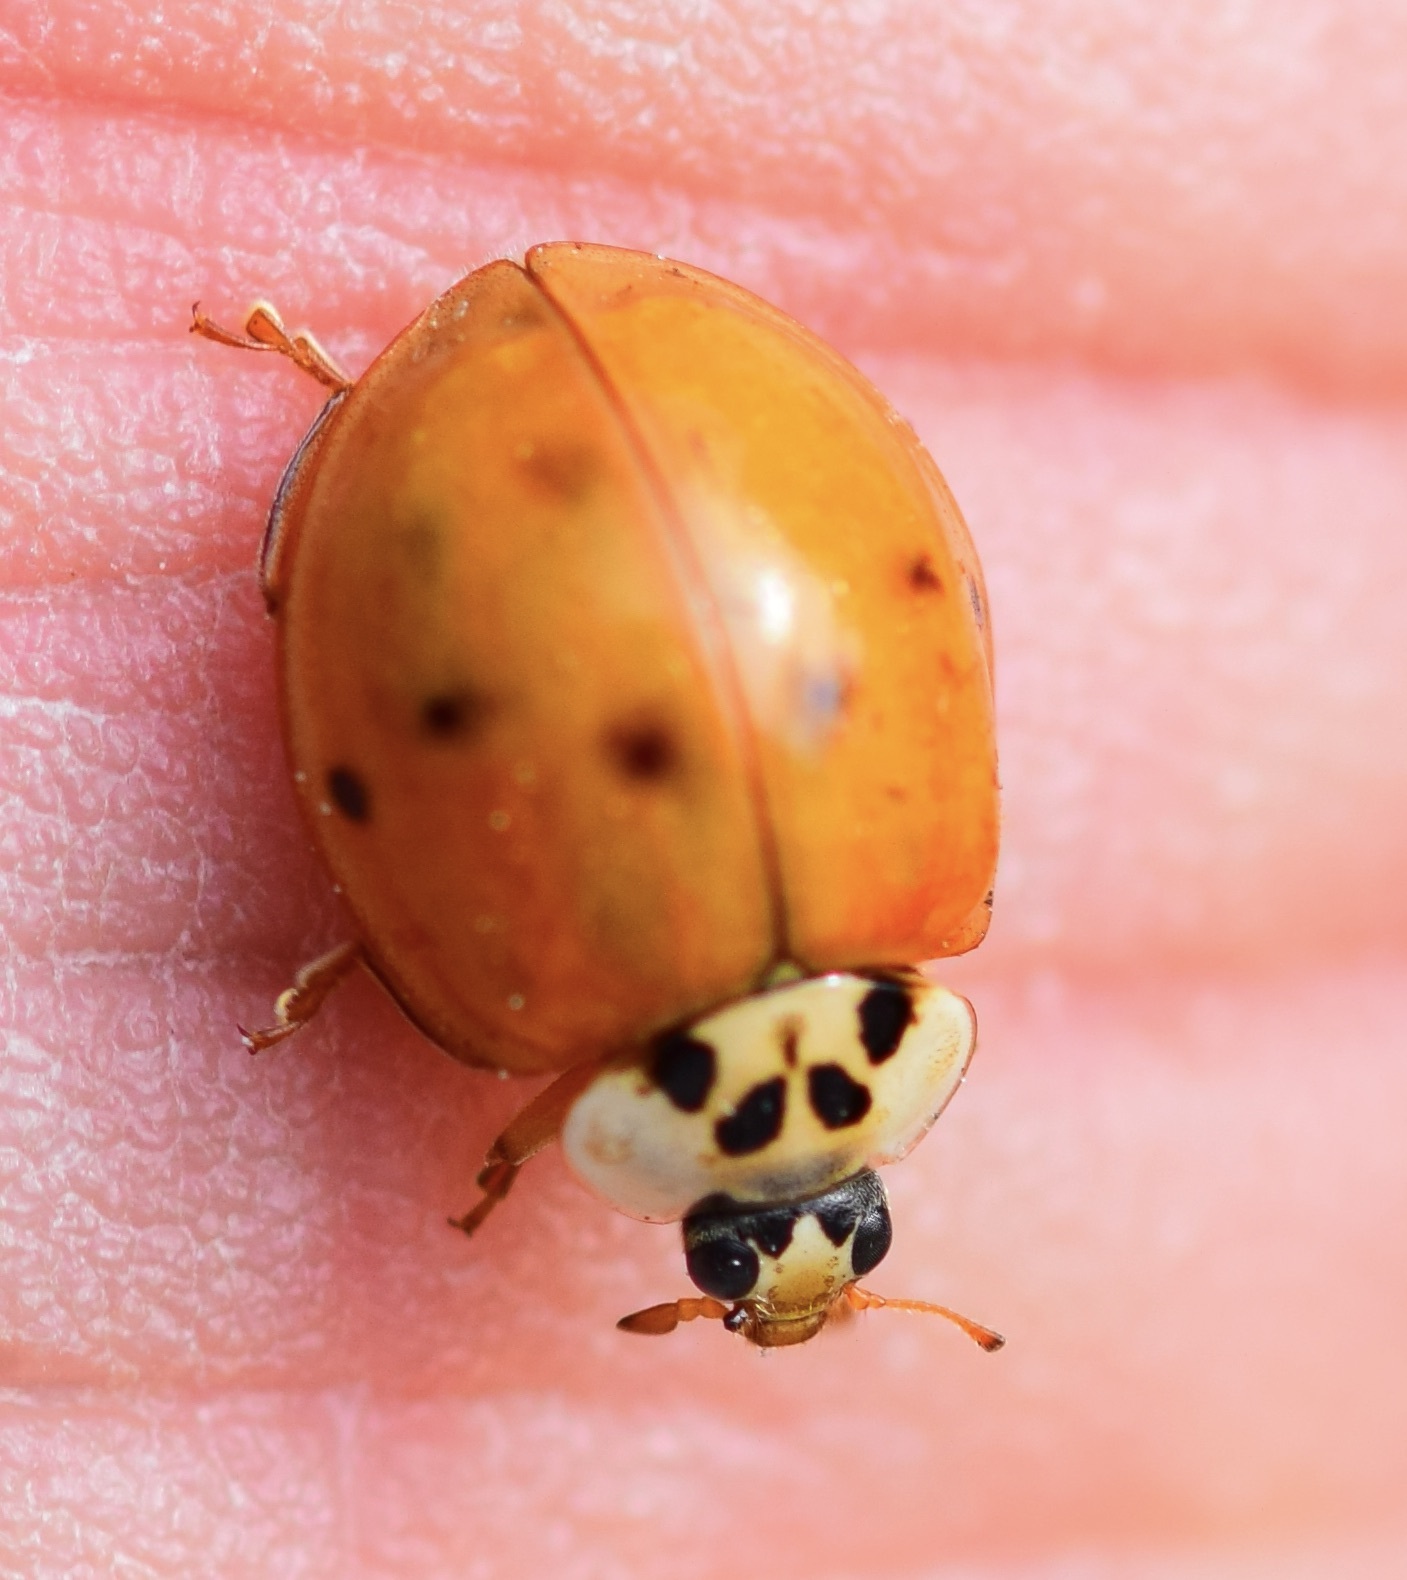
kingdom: Animalia
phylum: Arthropoda
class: Insecta
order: Coleoptera
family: Coccinellidae
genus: Harmonia
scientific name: Harmonia axyridis
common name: Harlequin ladybird
